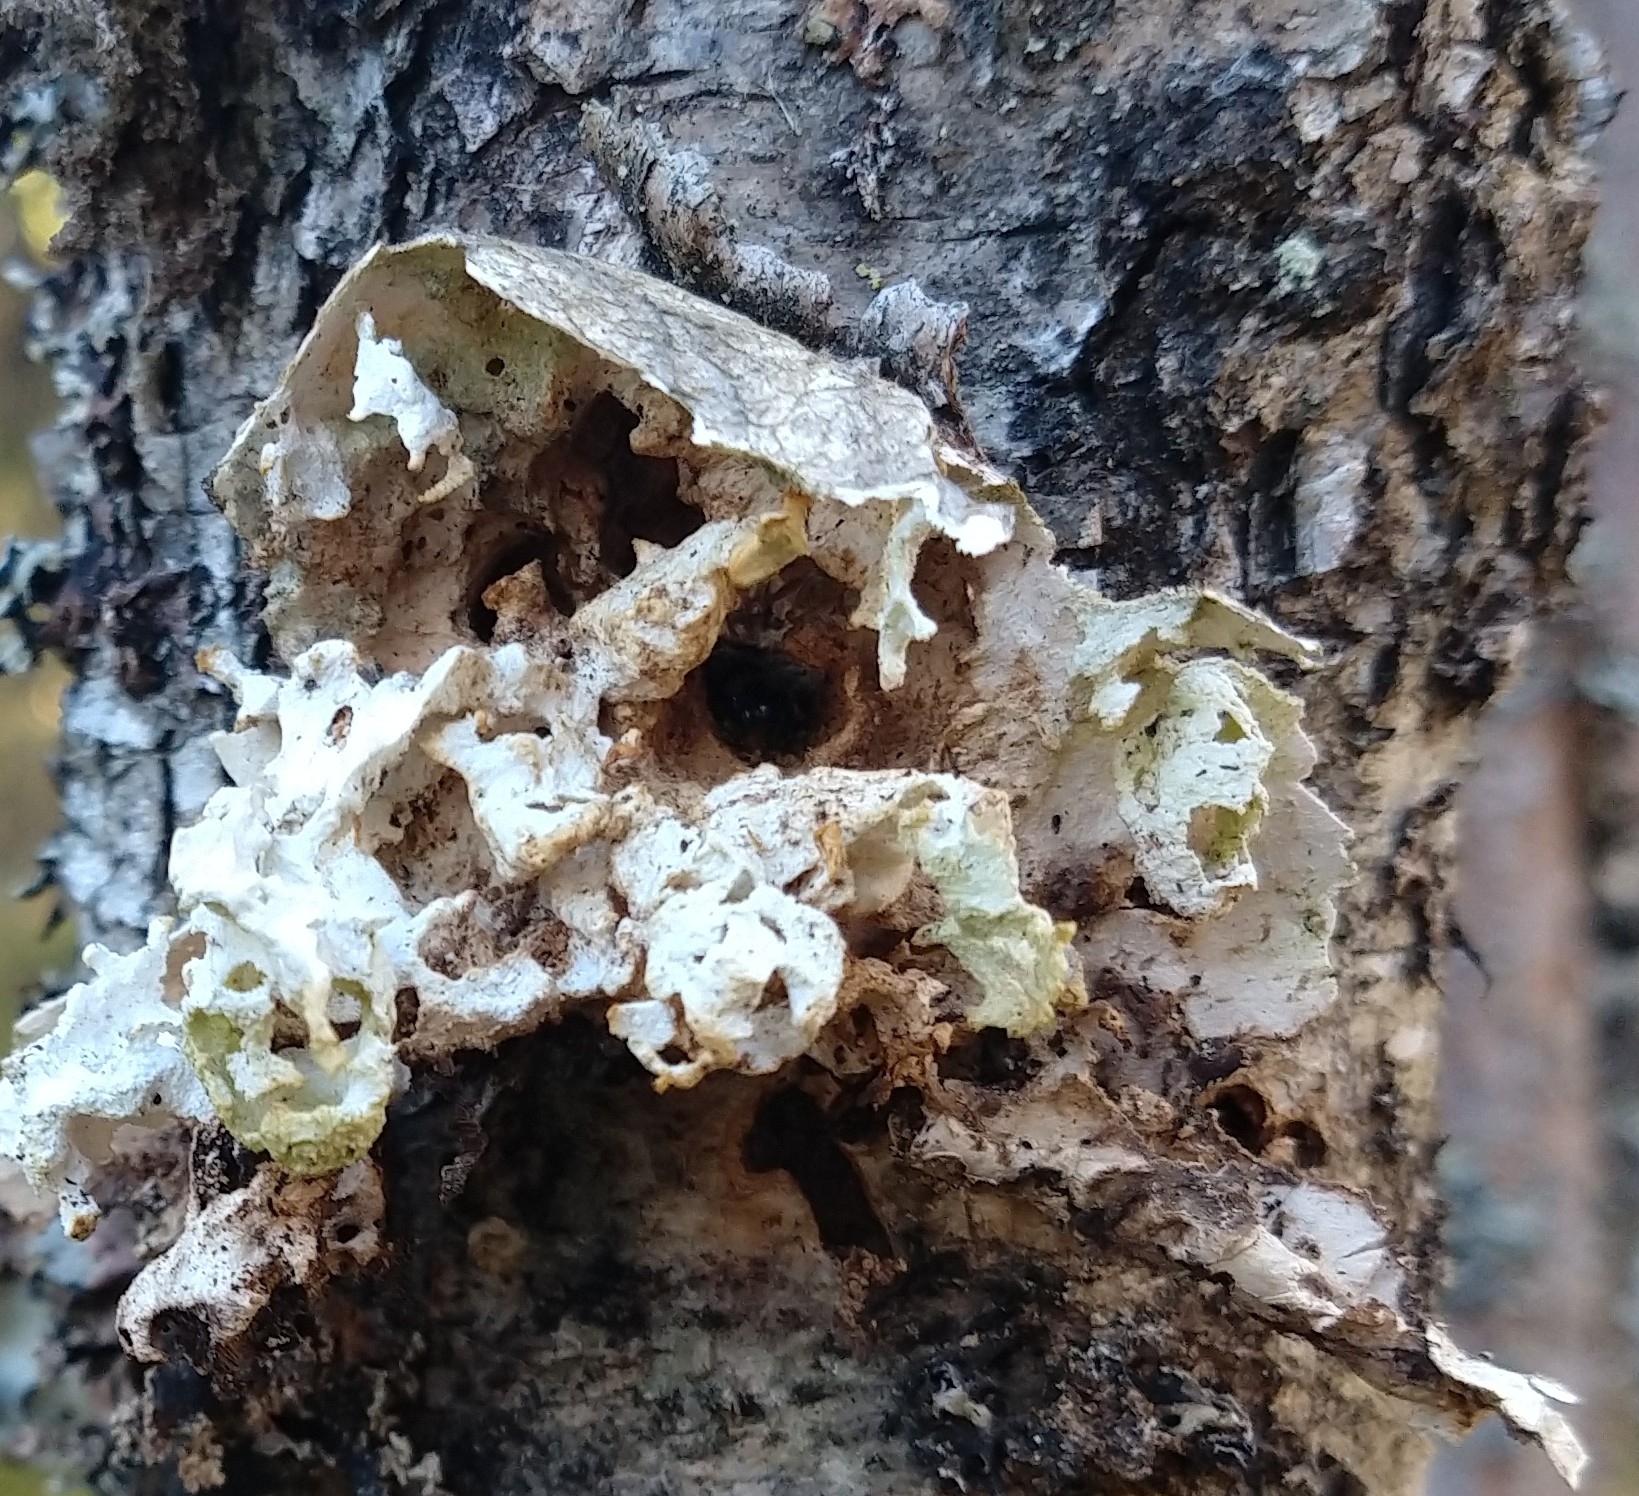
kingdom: Fungi
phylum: Basidiomycota
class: Agaricomycetes
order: Polyporales
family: Fomitopsidaceae
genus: Fomitopsis
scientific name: Fomitopsis betulina
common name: Birch polypore
